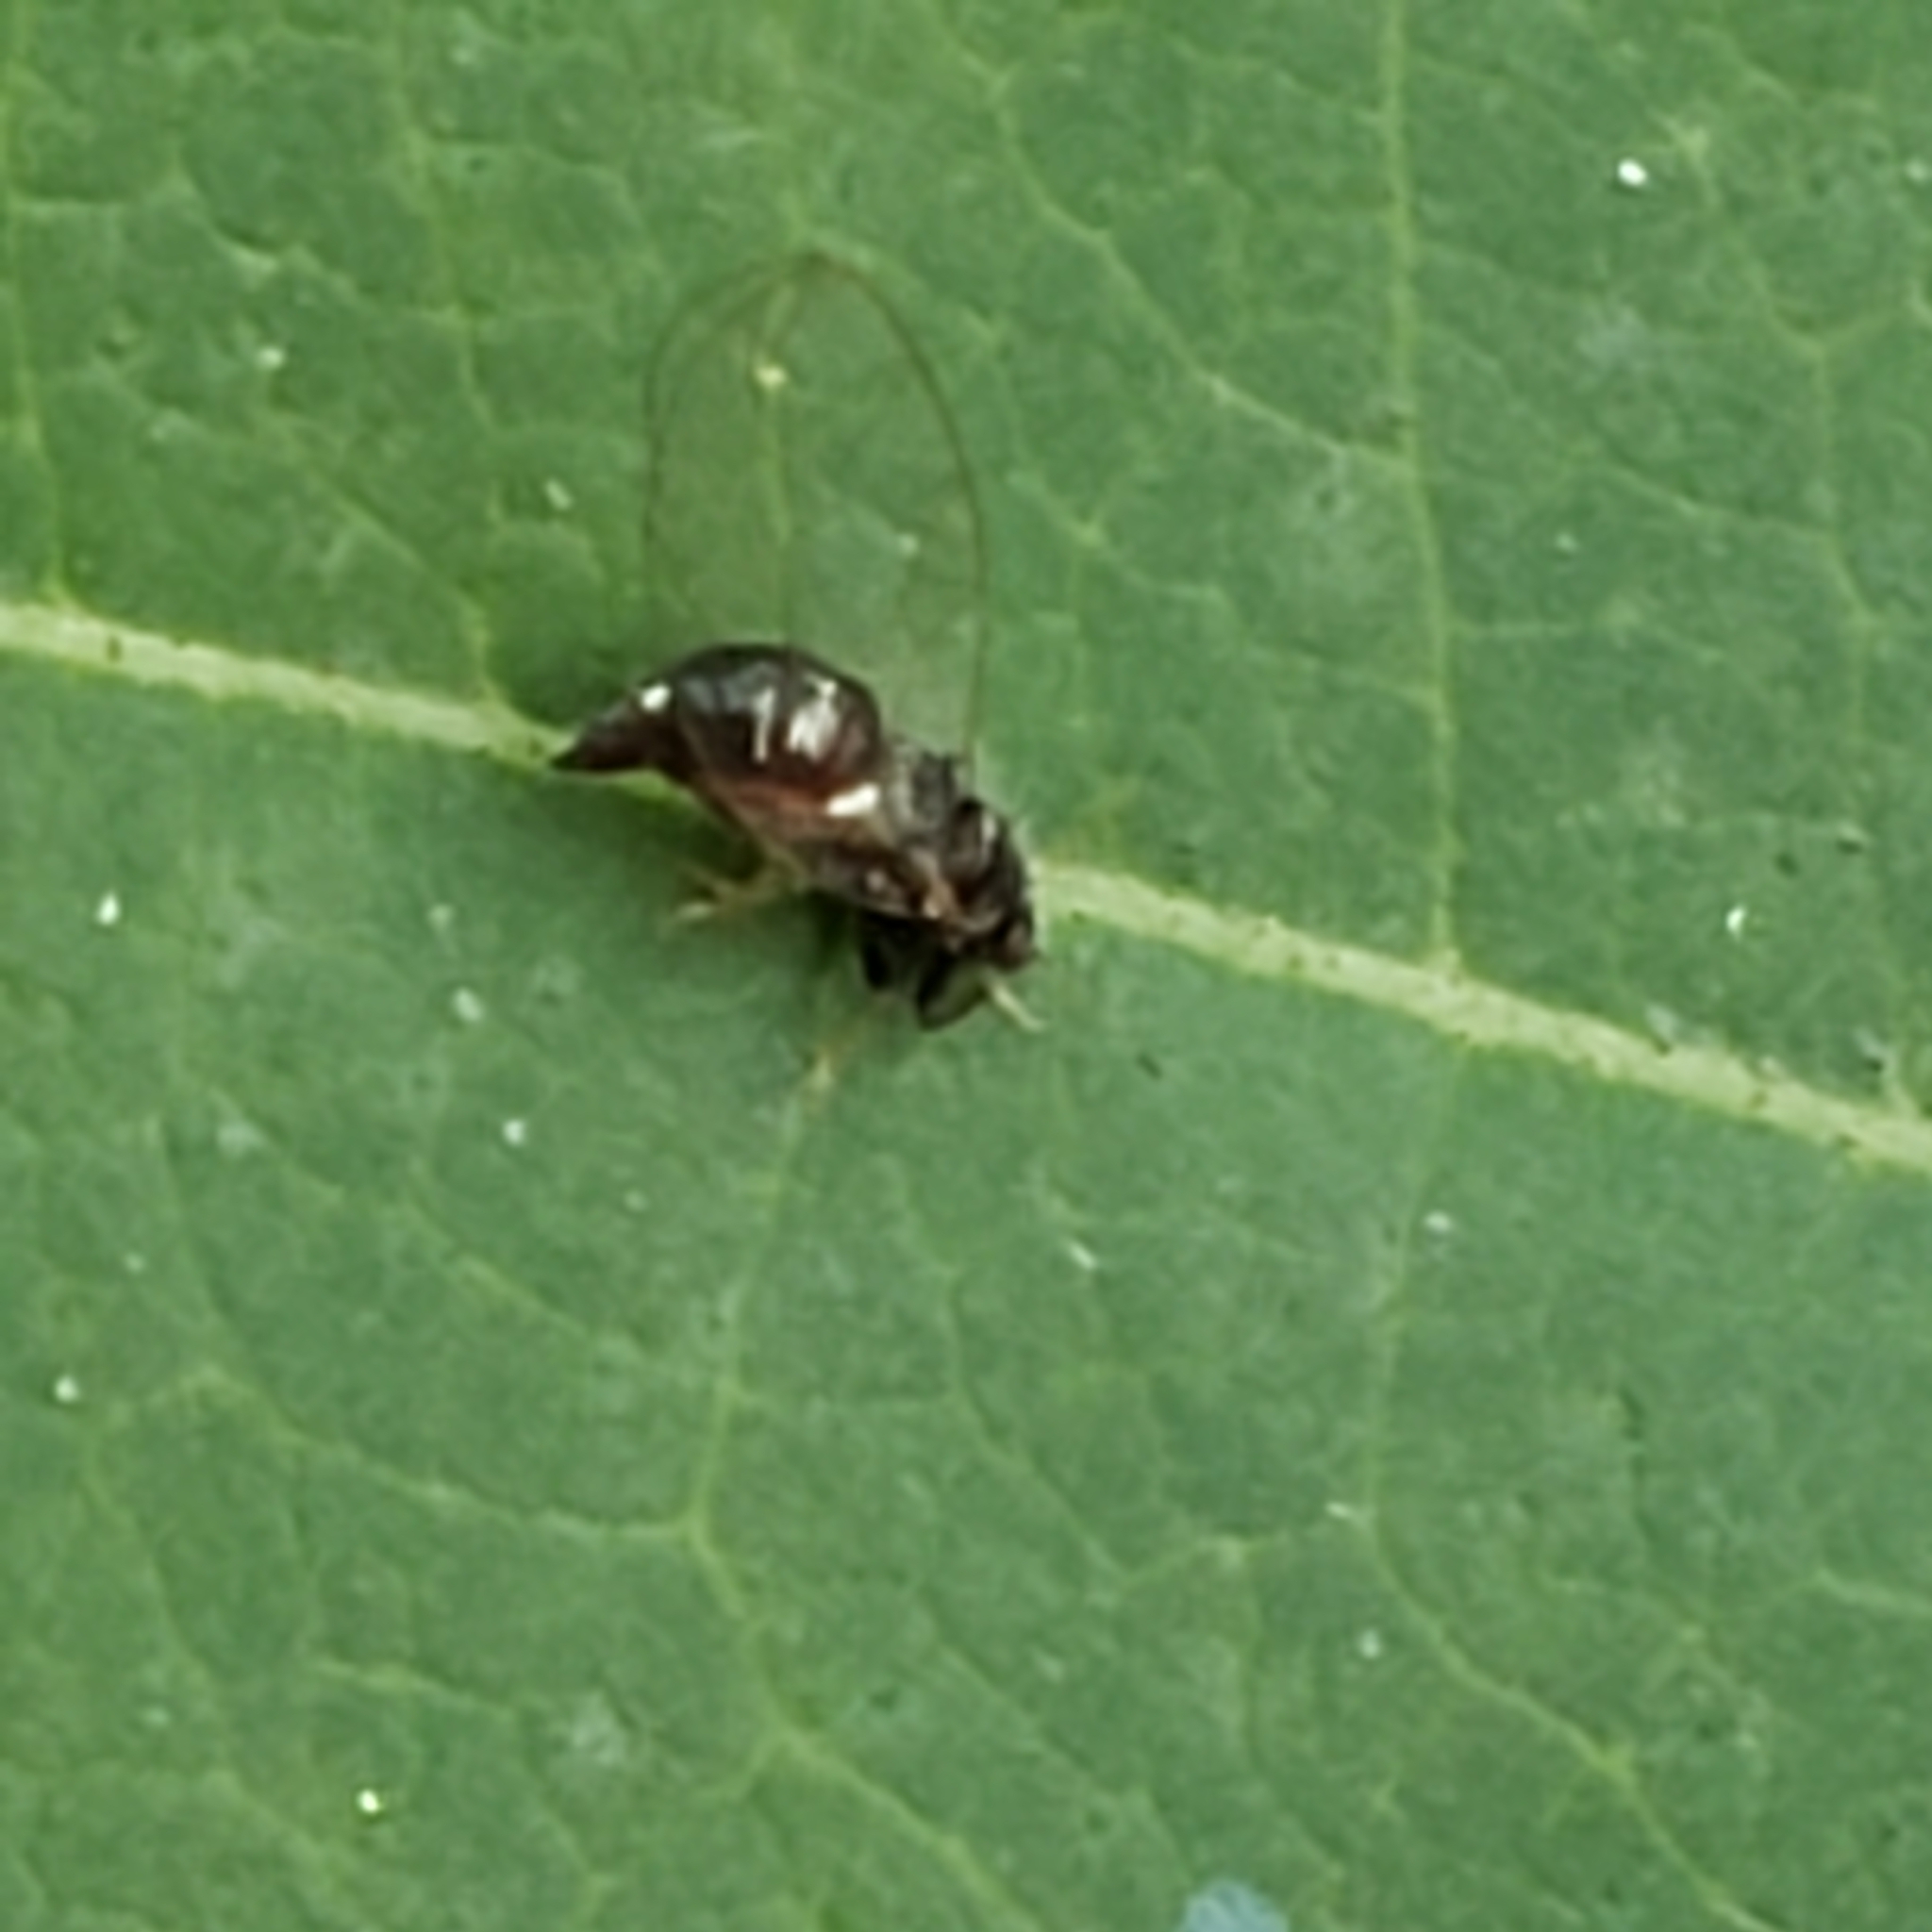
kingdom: Animalia
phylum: Arthropoda
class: Insecta
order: Hemiptera
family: Triozidae
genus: Baeoalitriozus
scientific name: Baeoalitriozus diospyri
